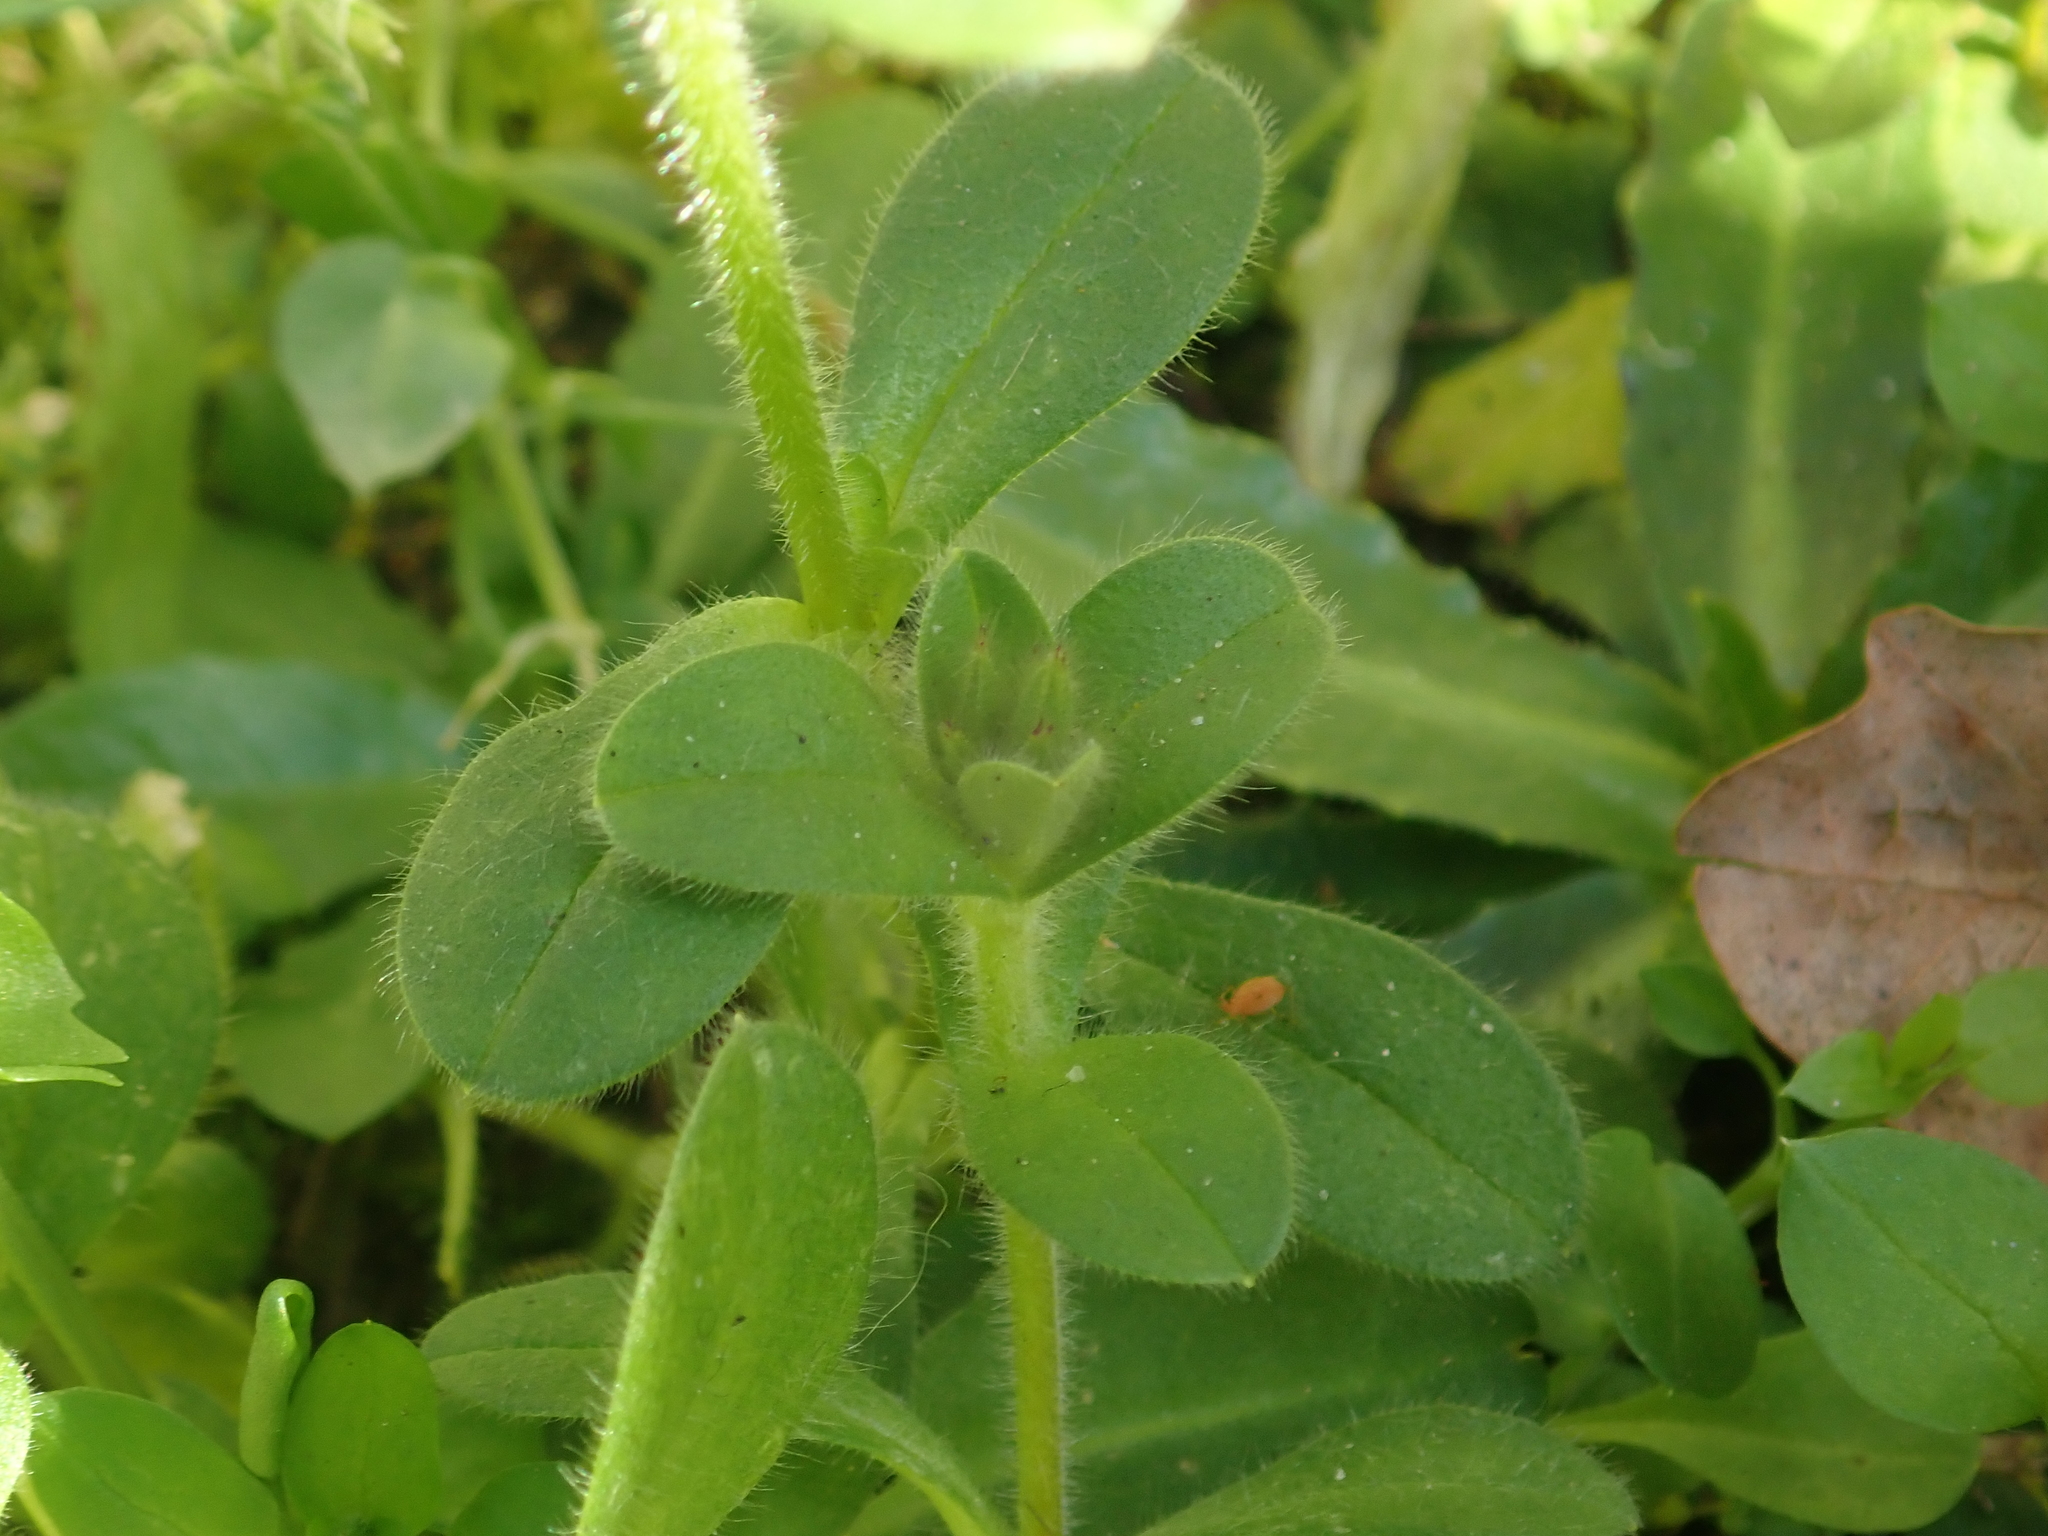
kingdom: Plantae
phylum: Tracheophyta
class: Magnoliopsida
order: Caryophyllales
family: Caryophyllaceae
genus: Cerastium
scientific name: Cerastium glomeratum
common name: Sticky chickweed
